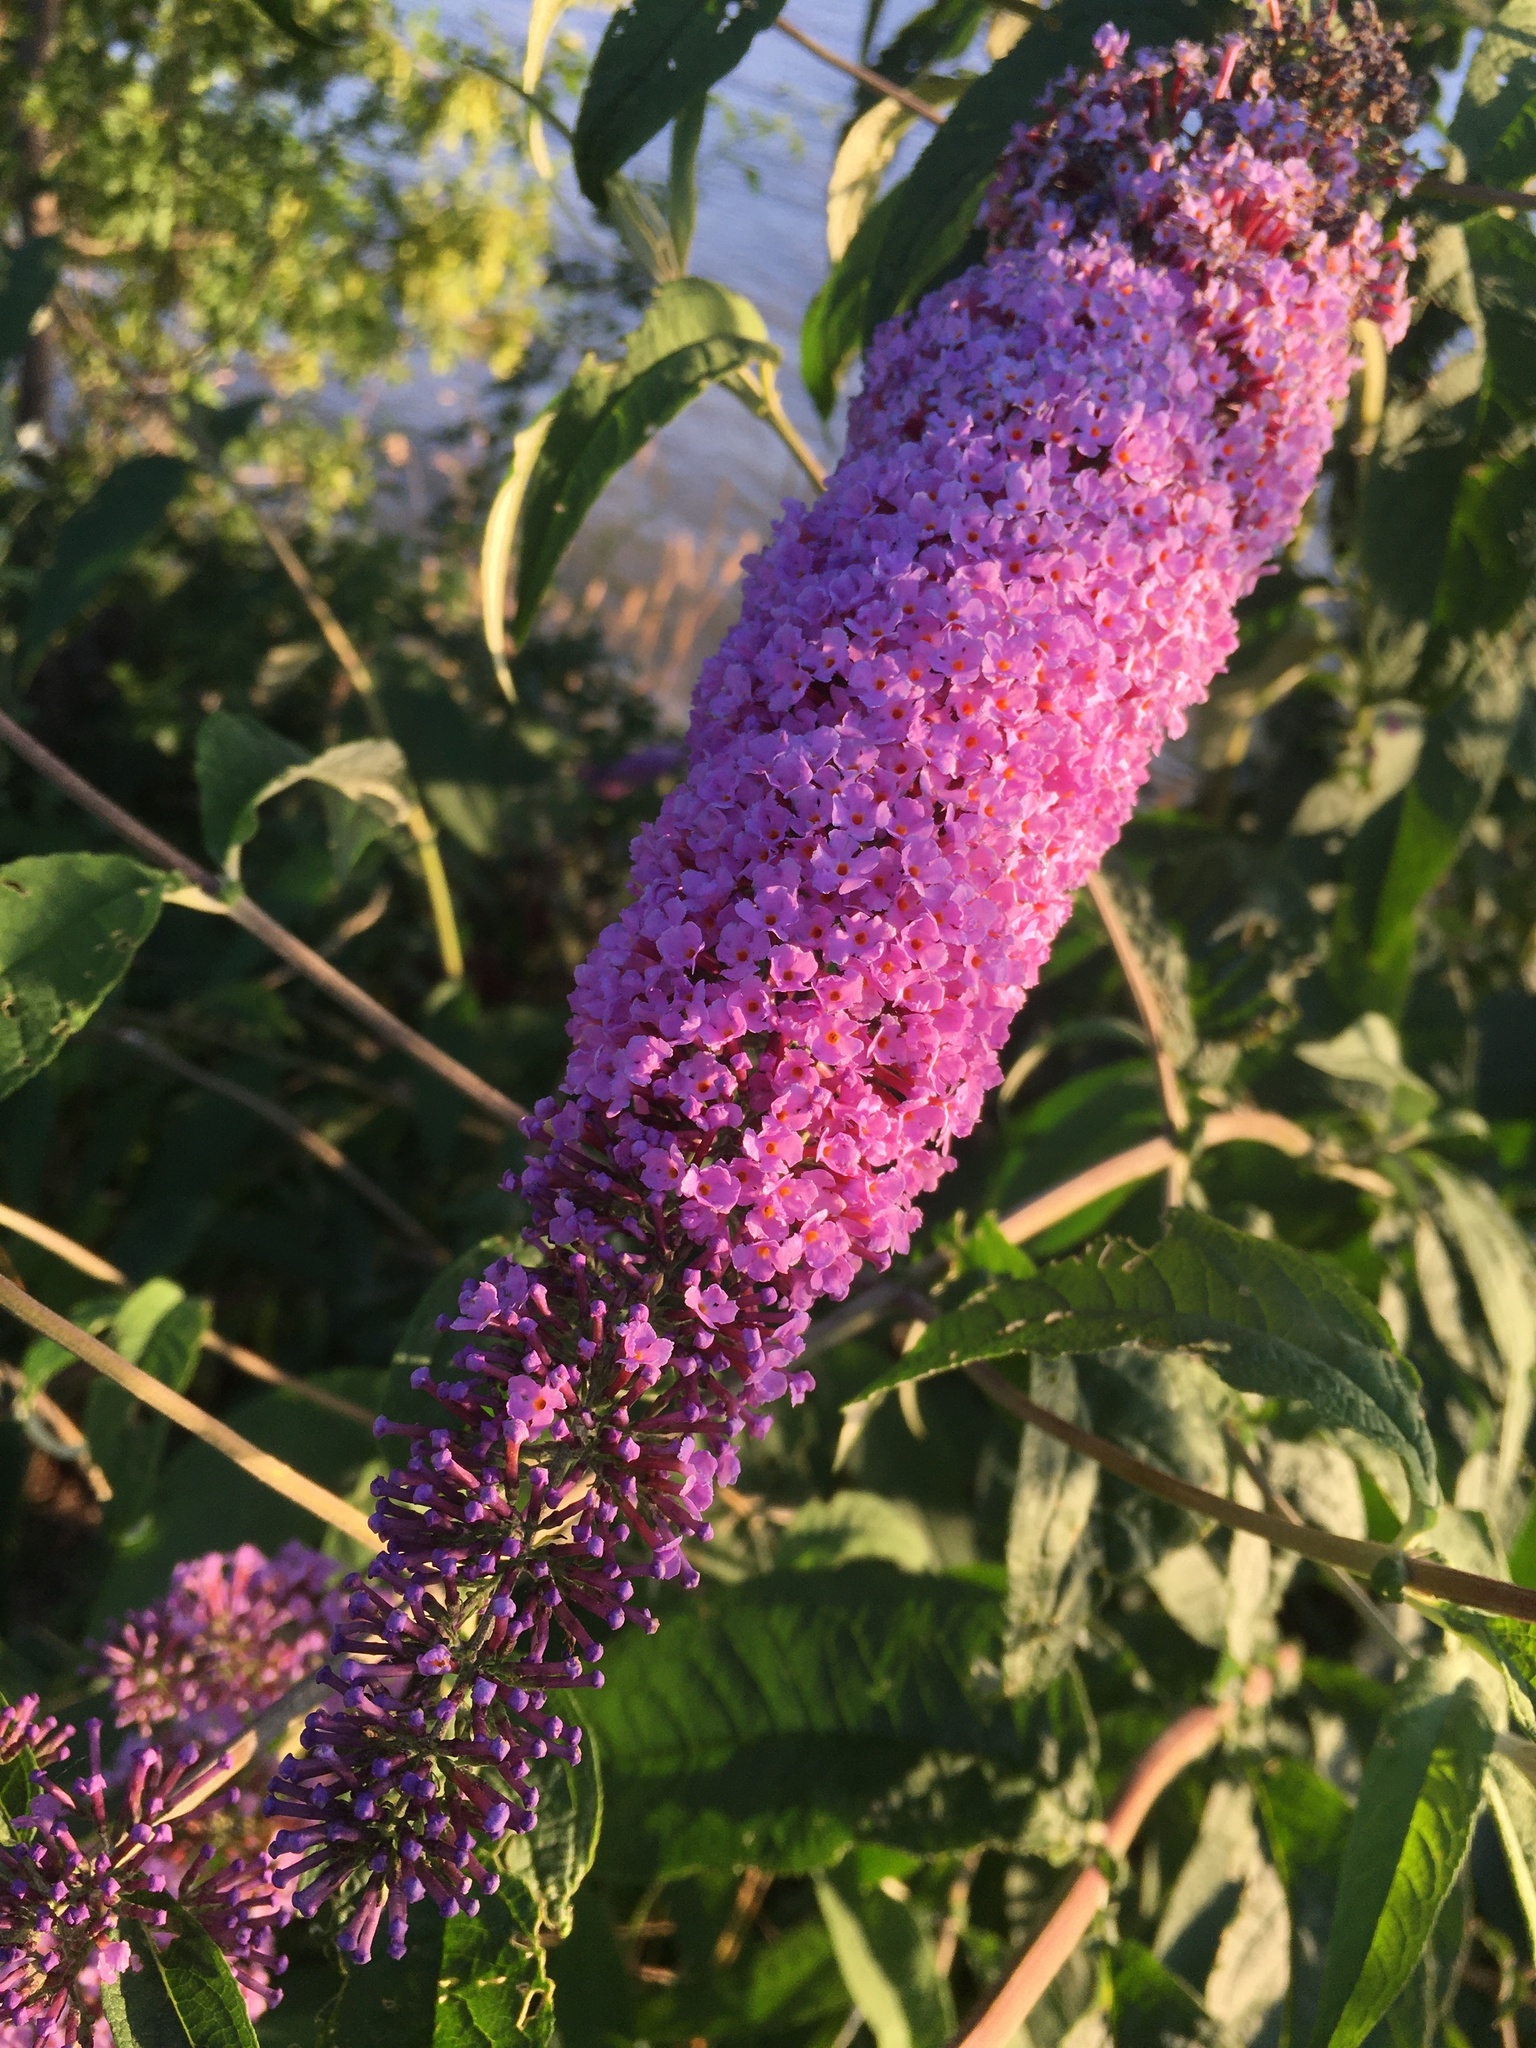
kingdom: Plantae
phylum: Tracheophyta
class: Magnoliopsida
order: Lamiales
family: Scrophulariaceae
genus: Buddleja
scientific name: Buddleja davidii
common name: Butterfly-bush
